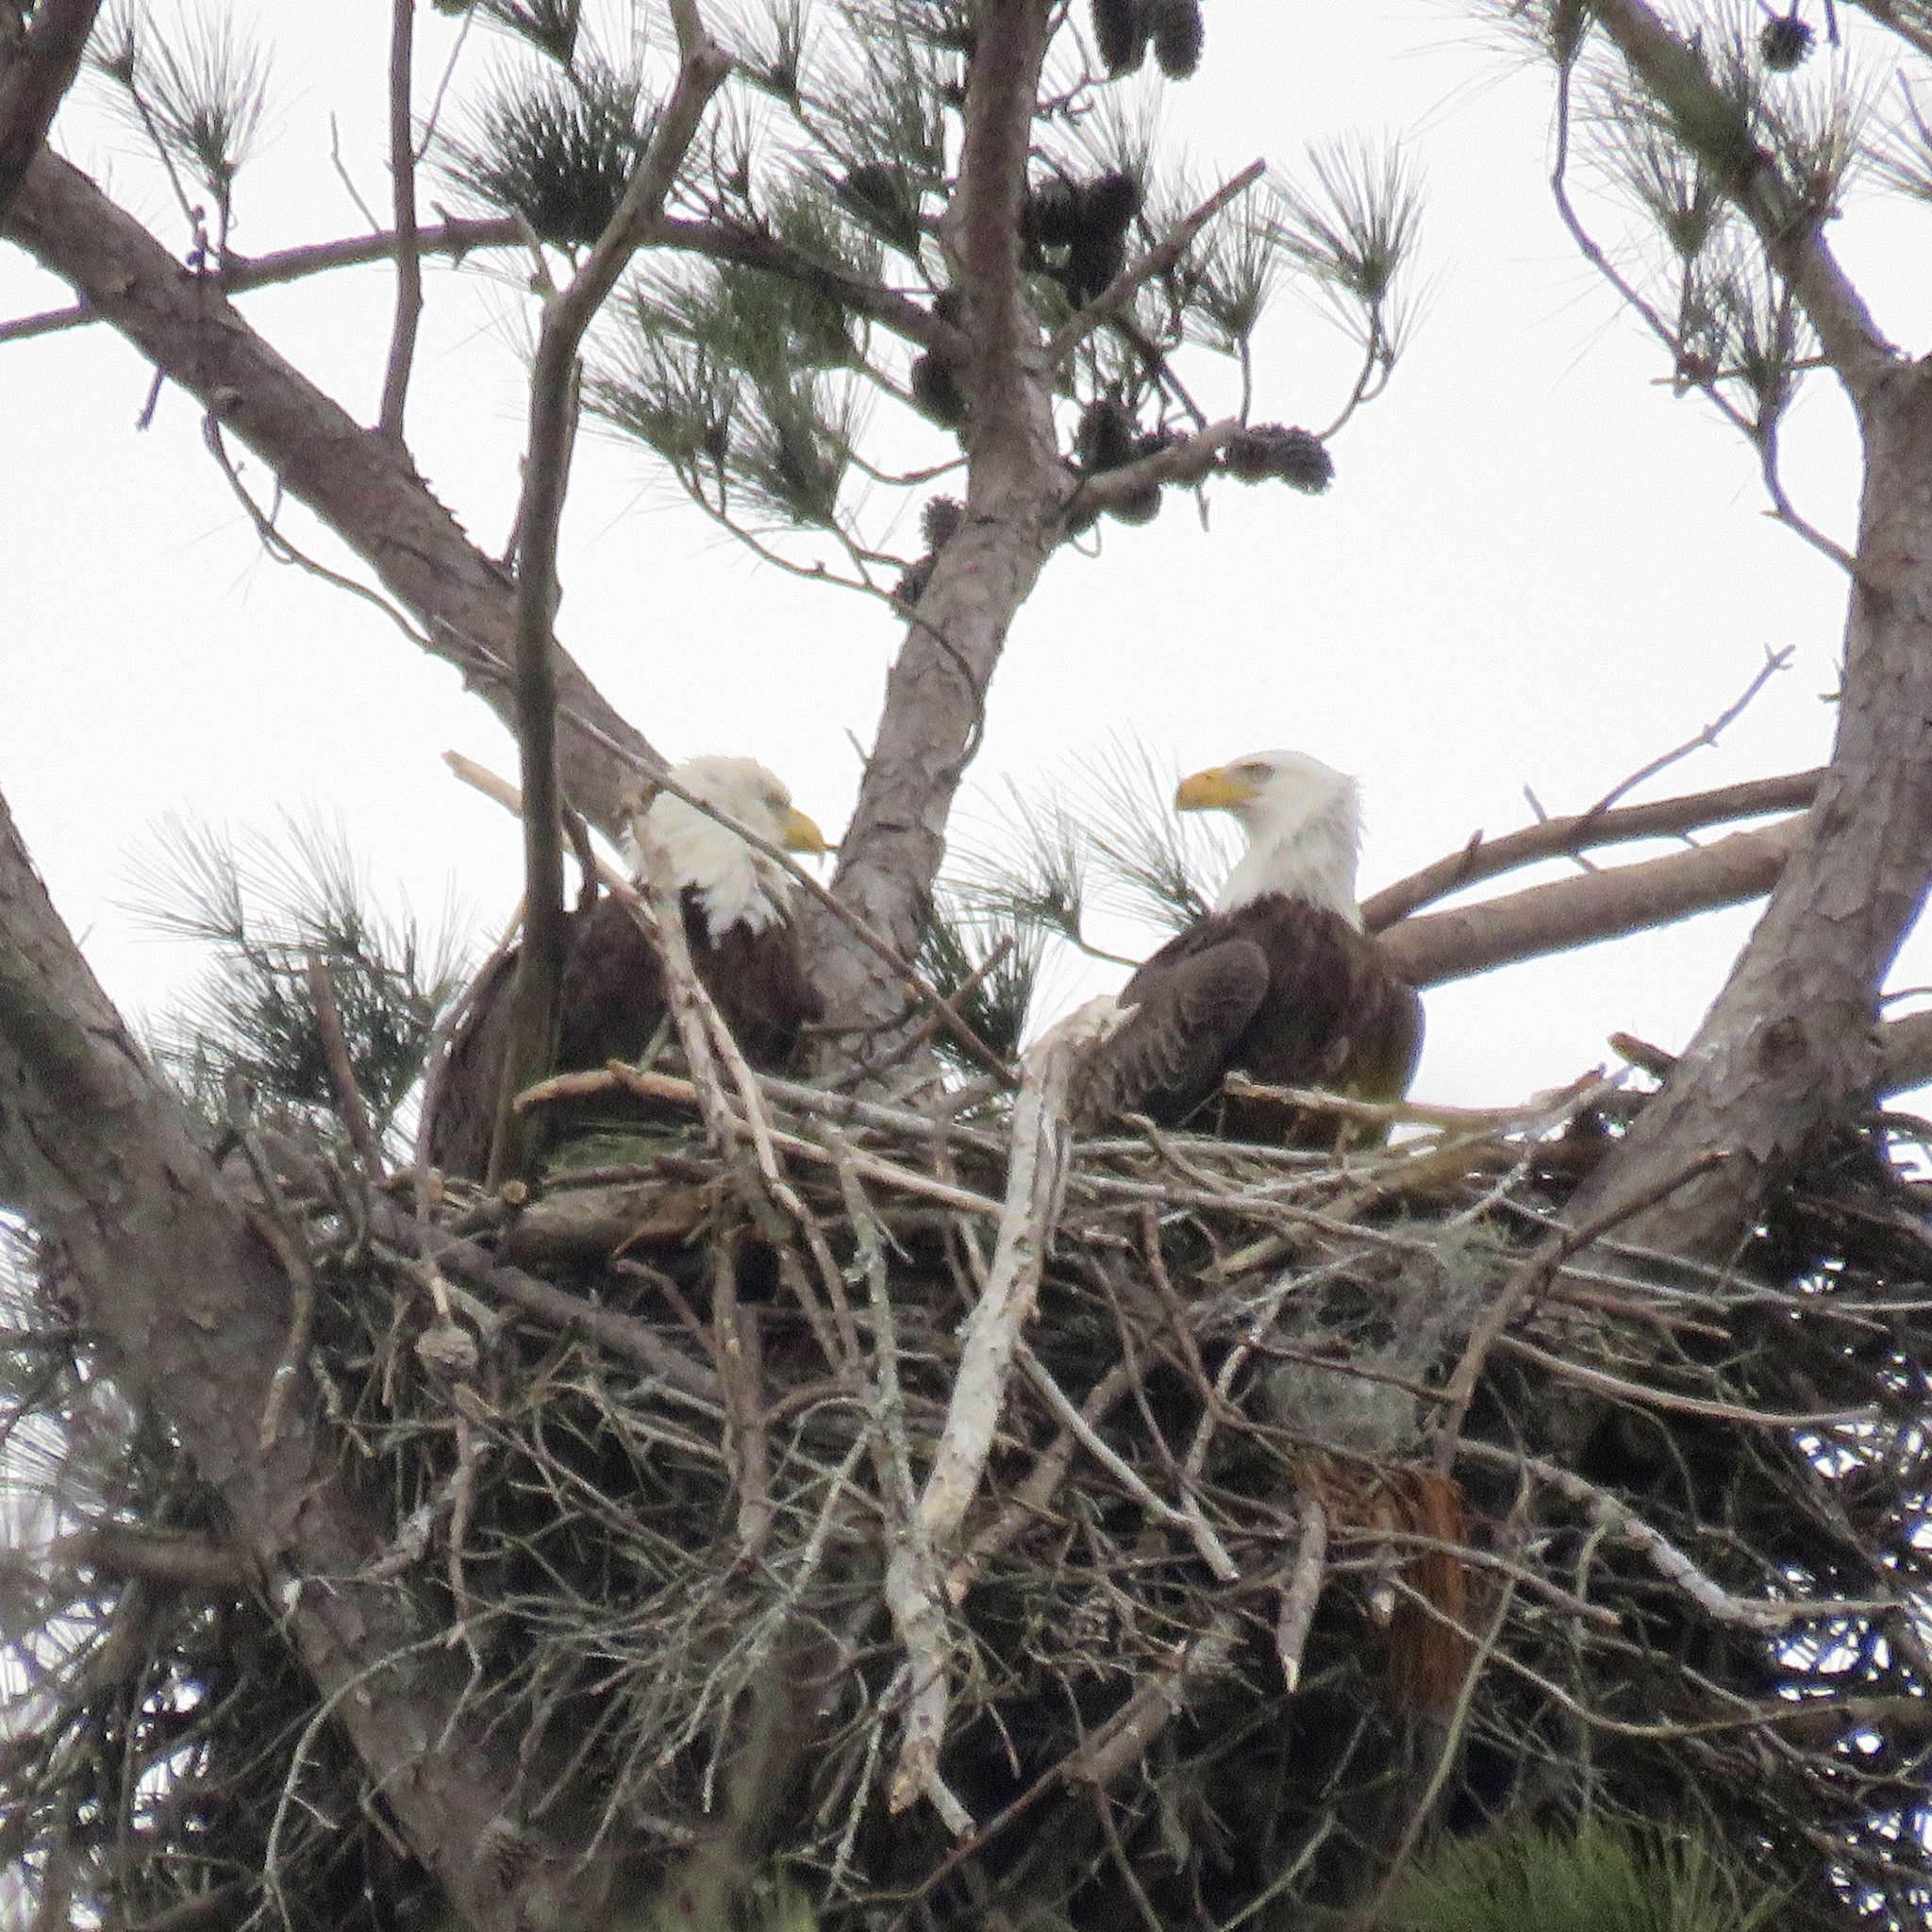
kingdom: Animalia
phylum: Chordata
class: Aves
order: Accipitriformes
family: Accipitridae
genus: Haliaeetus
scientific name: Haliaeetus leucocephalus
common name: Bald eagle
